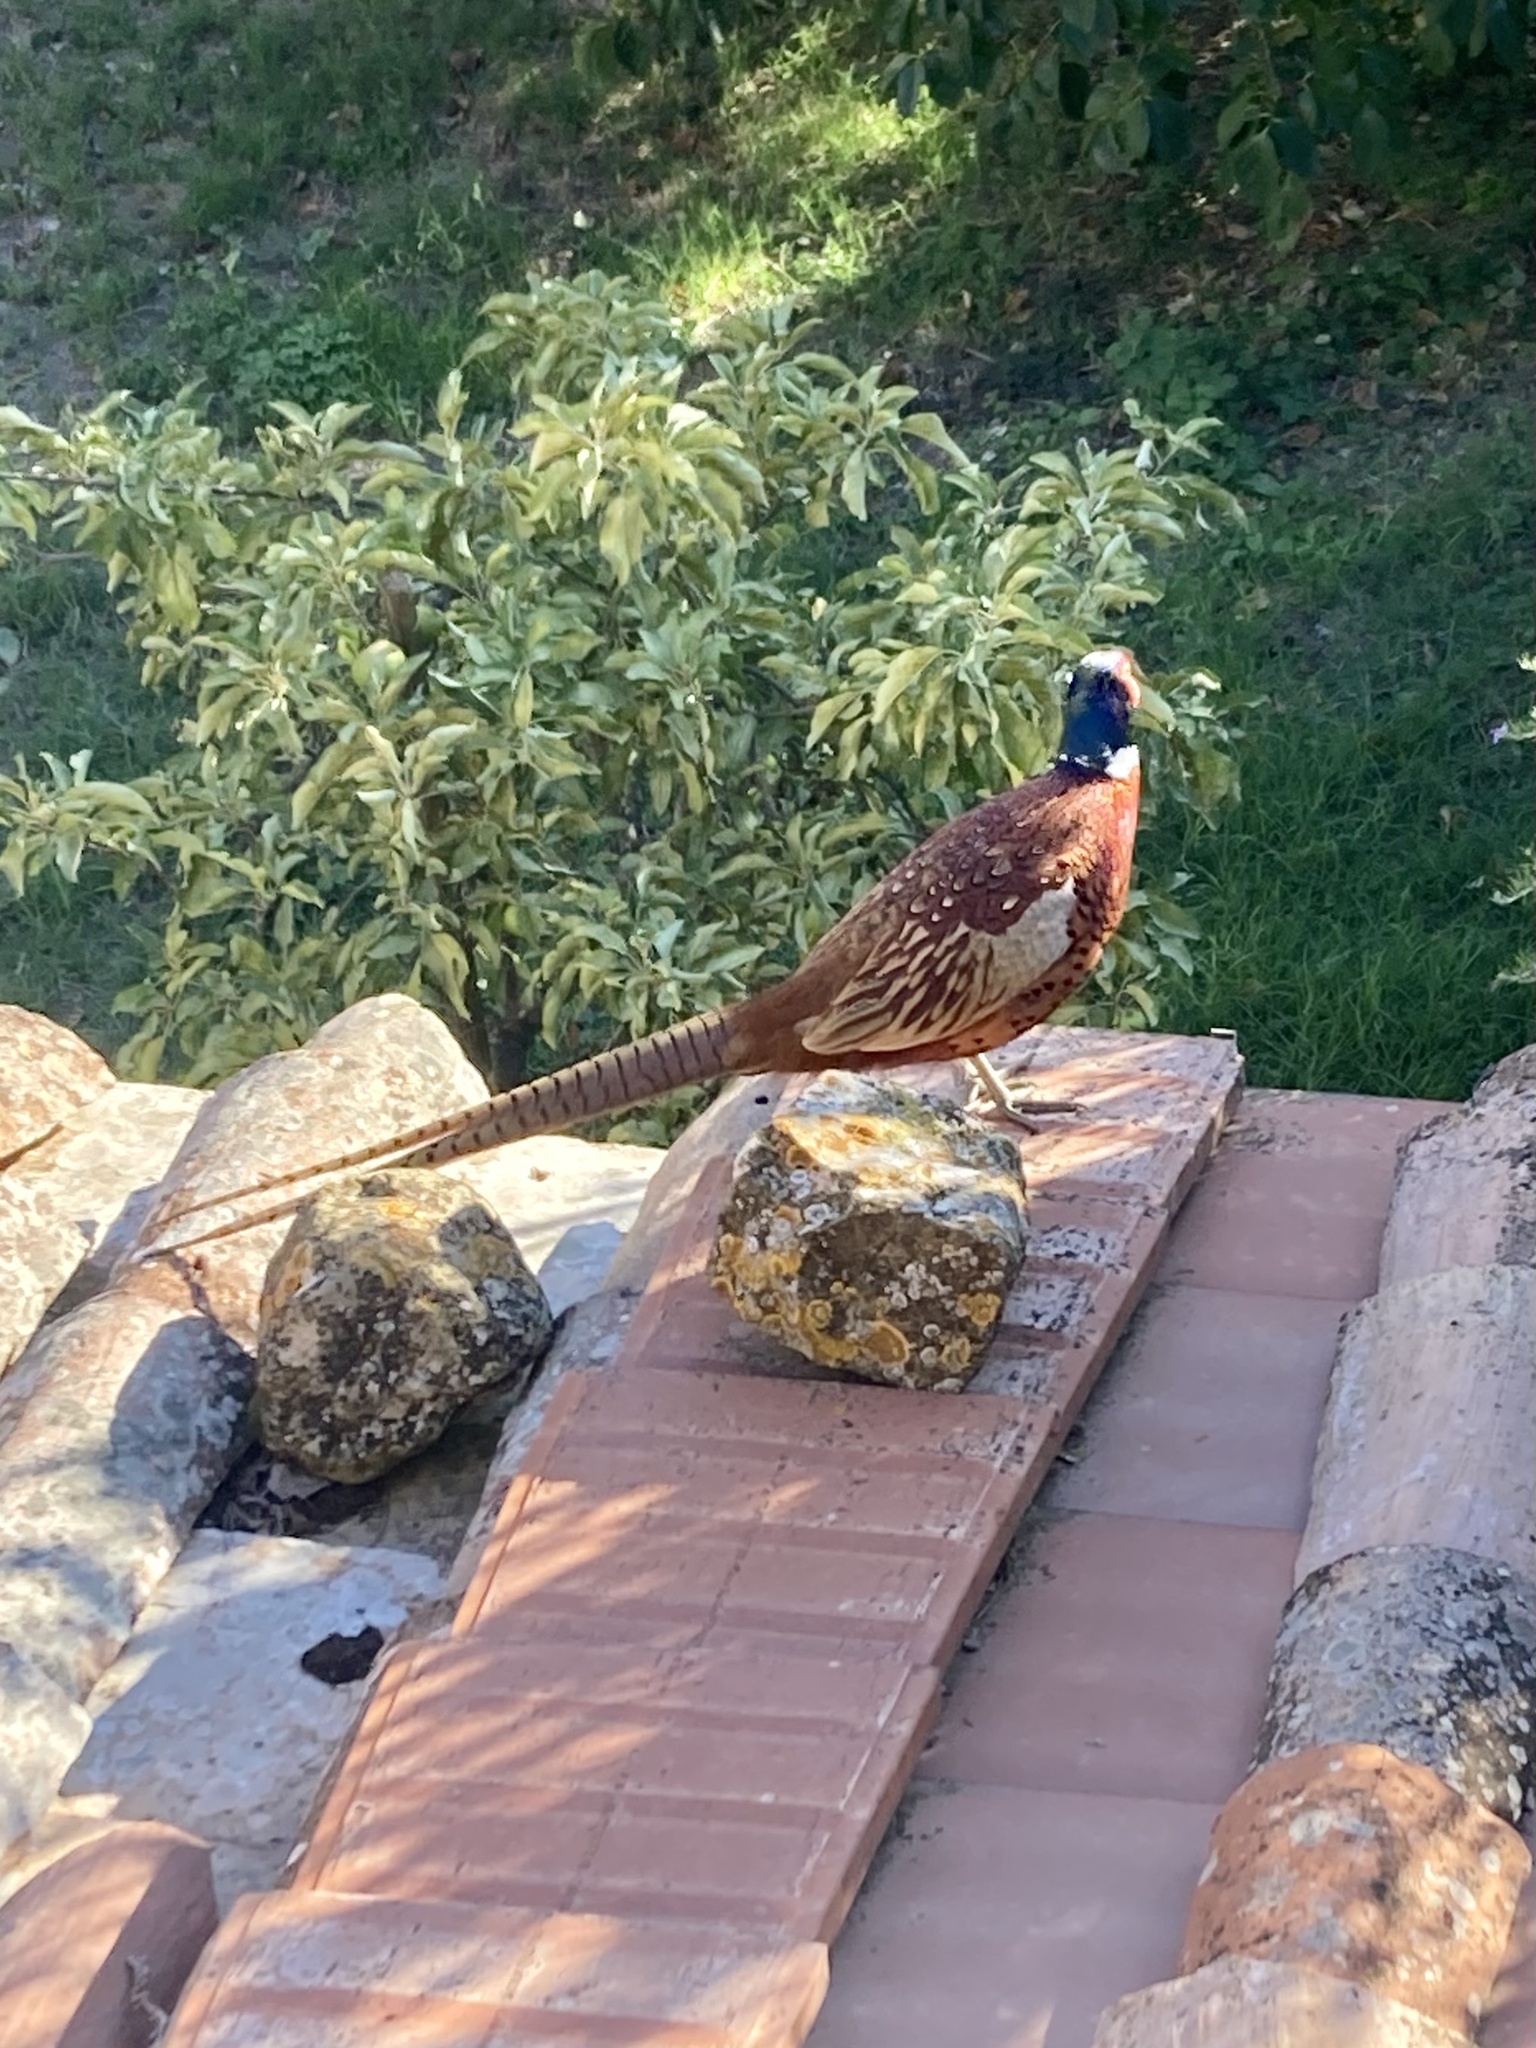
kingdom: Animalia
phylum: Chordata
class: Aves
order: Galliformes
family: Phasianidae
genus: Phasianus
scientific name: Phasianus colchicus
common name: Common pheasant
